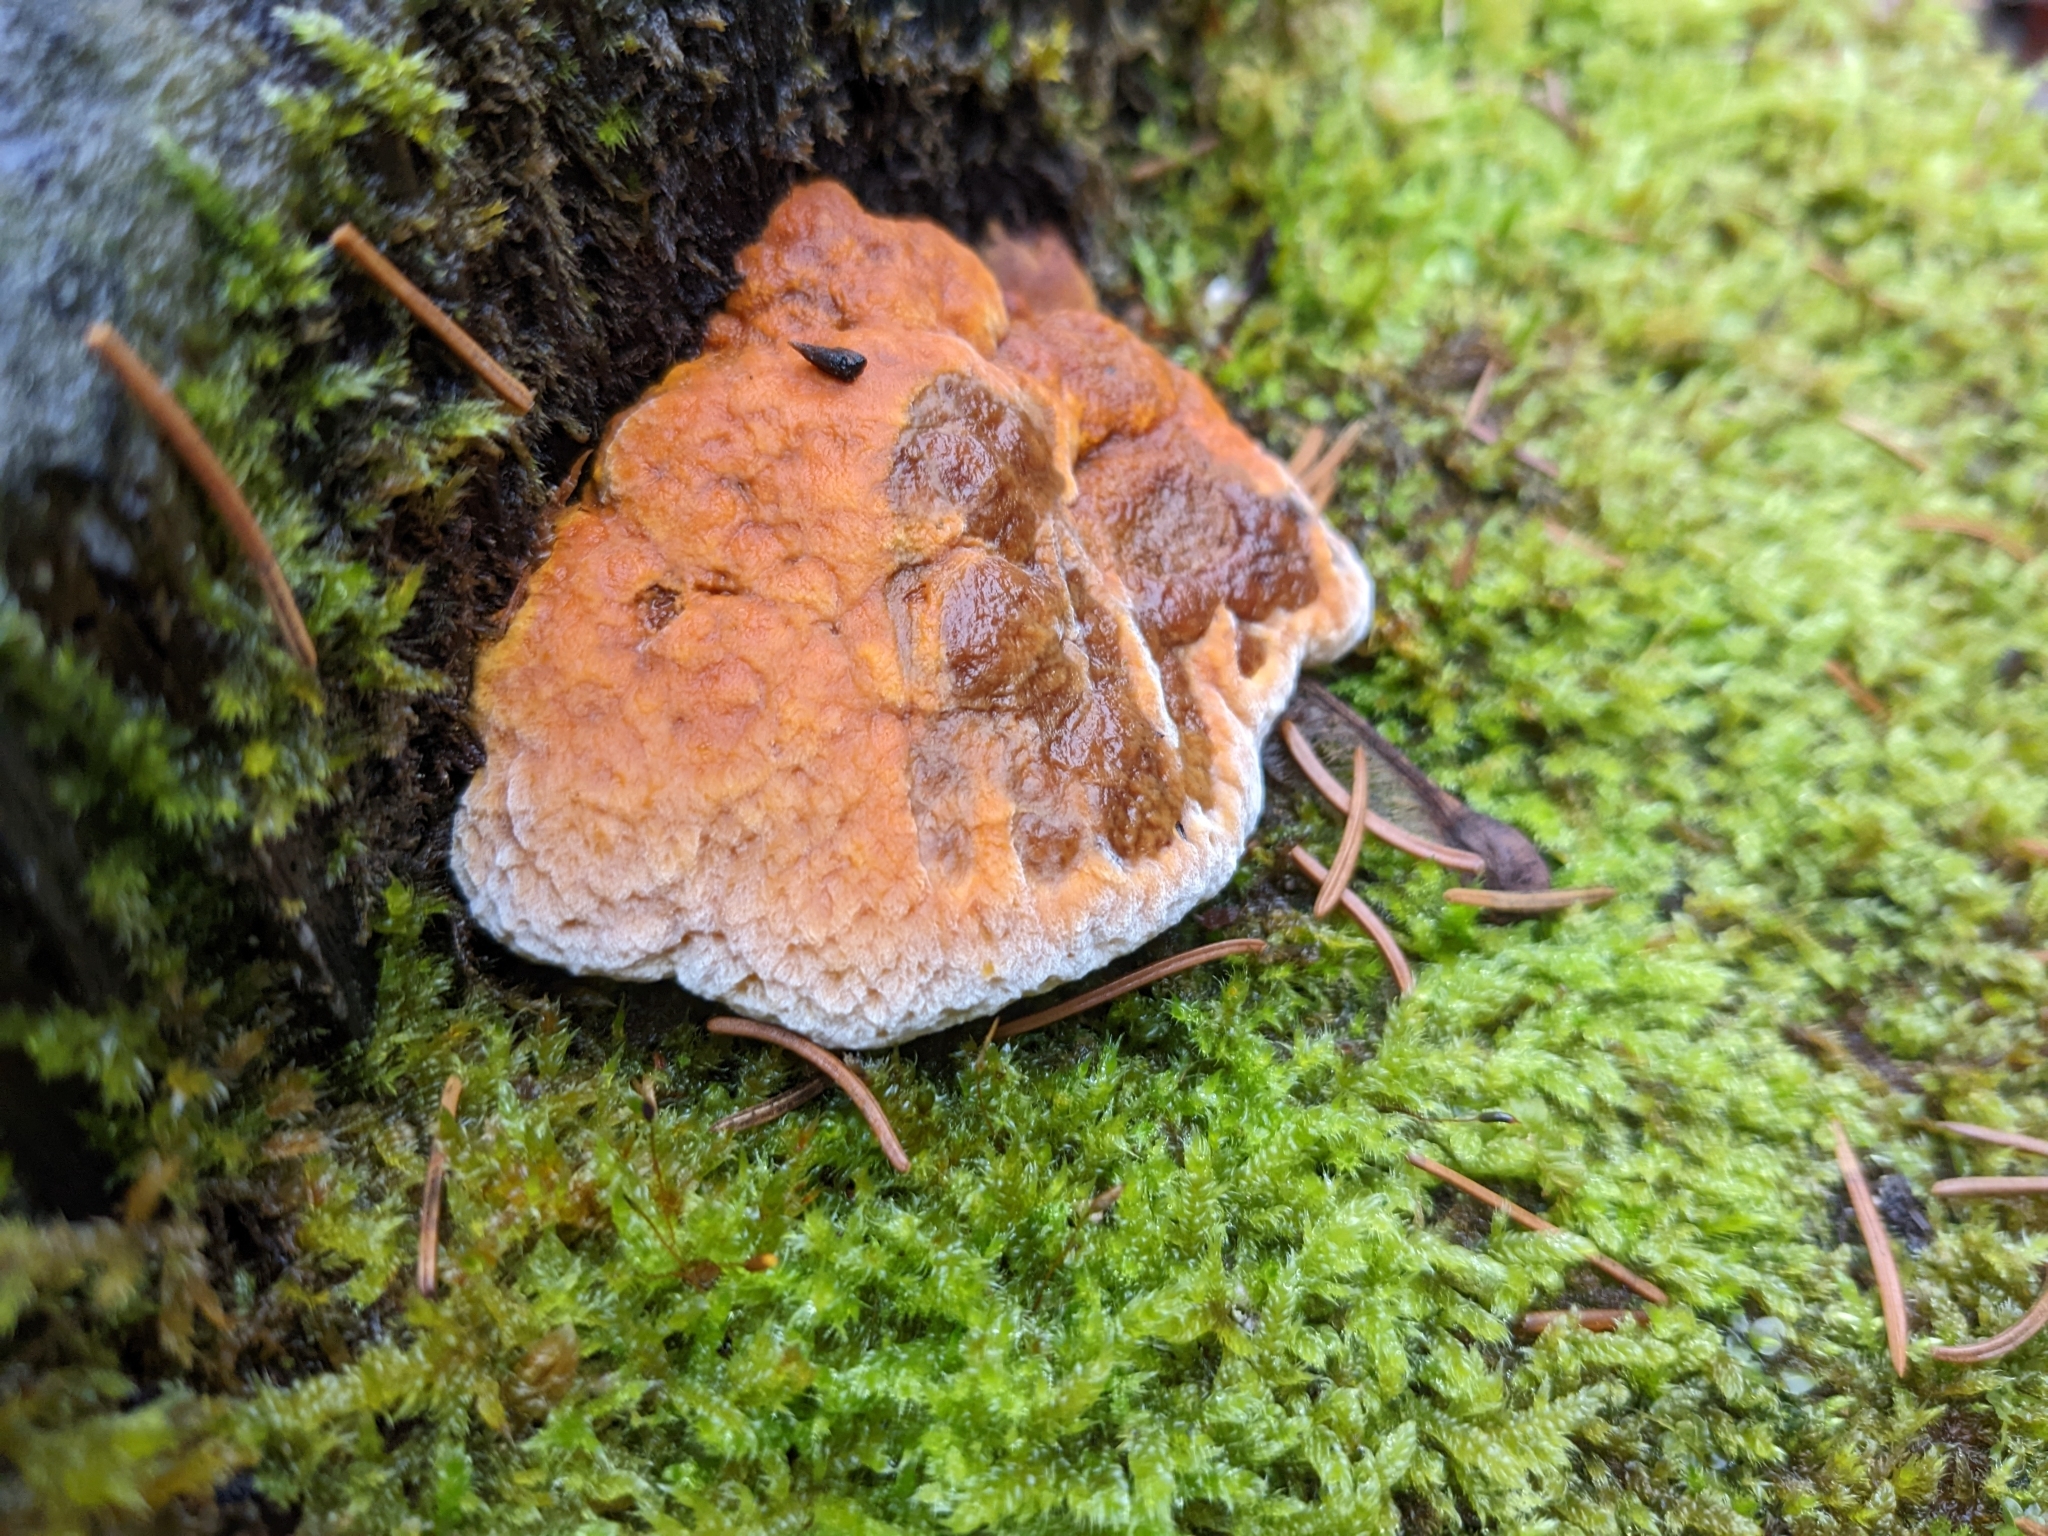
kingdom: Fungi
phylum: Basidiomycota
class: Agaricomycetes
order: Gloeophyllales
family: Gloeophyllaceae
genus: Gloeophyllum
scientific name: Gloeophyllum odoratum
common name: Anise mazegill
